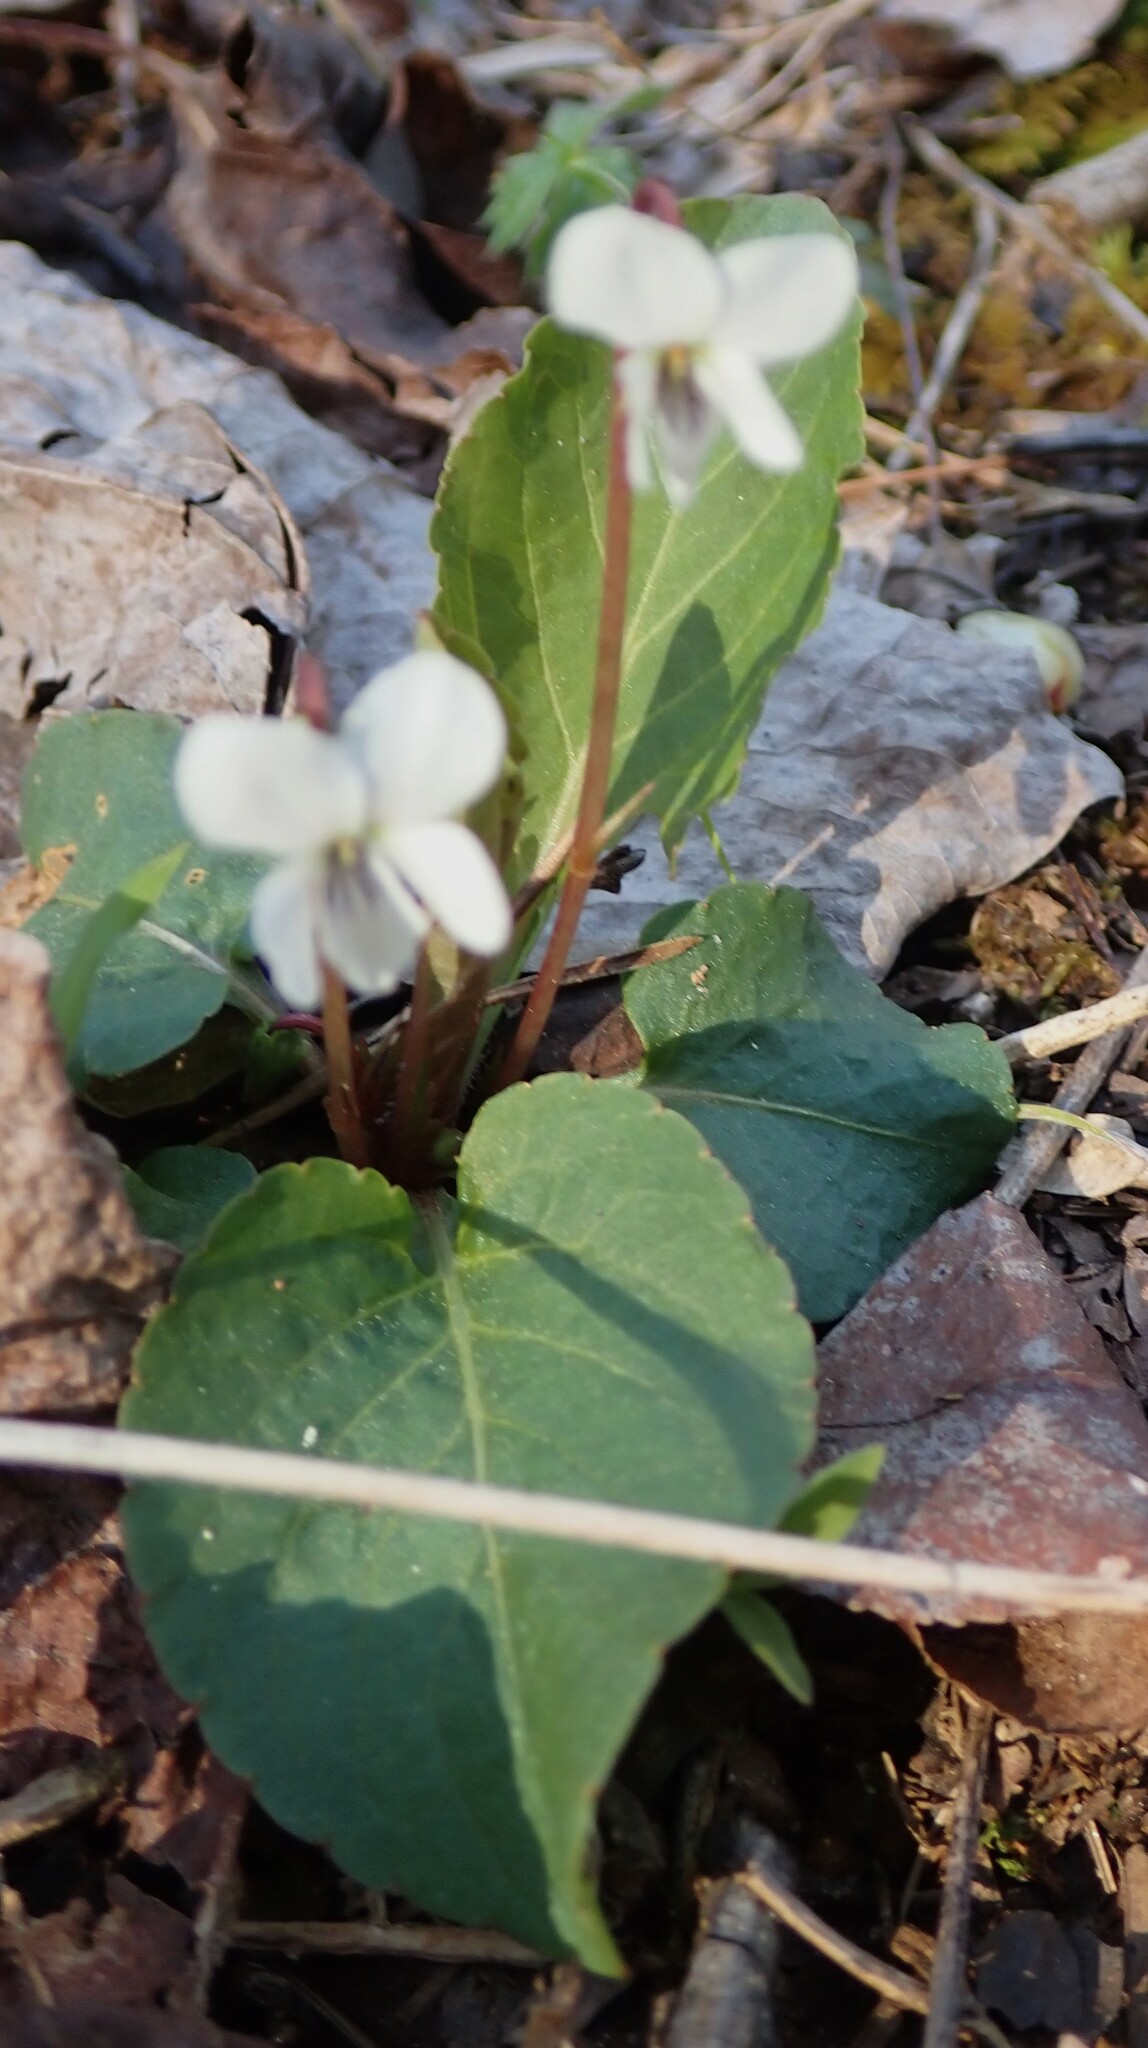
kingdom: Plantae
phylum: Tracheophyta
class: Magnoliopsida
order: Malpighiales
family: Violaceae
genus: Viola
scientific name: Viola primulifolia
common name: Primrose-leaf violet
